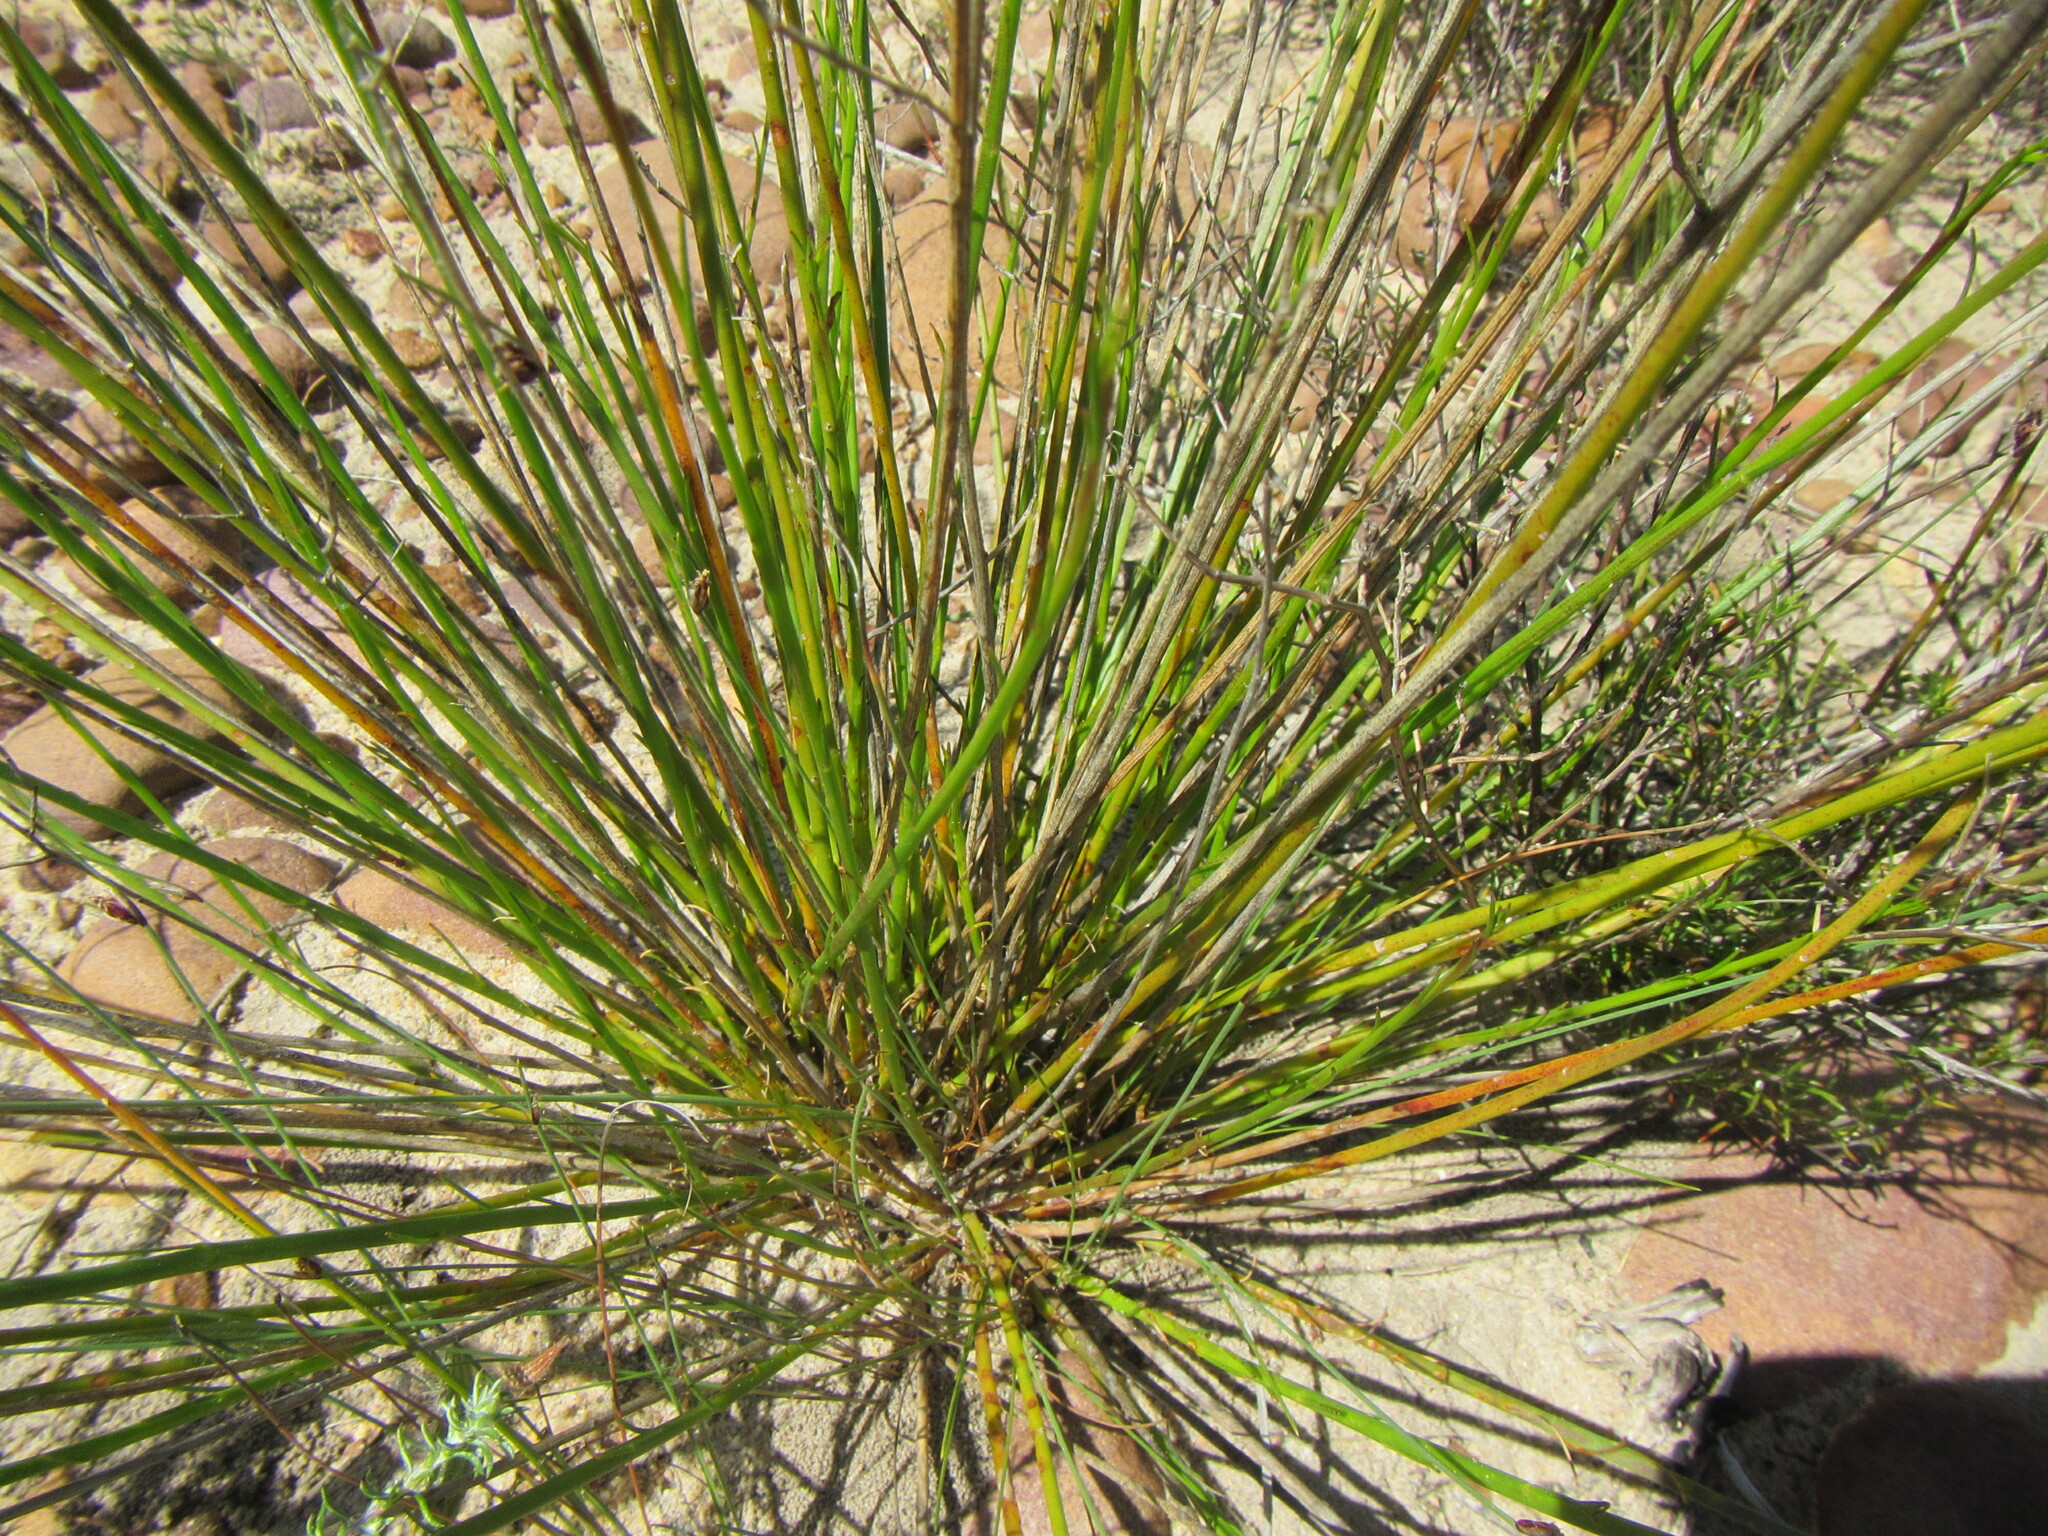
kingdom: Plantae
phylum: Tracheophyta
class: Magnoliopsida
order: Asterales
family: Campanulaceae
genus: Lobelia
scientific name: Lobelia linearis
